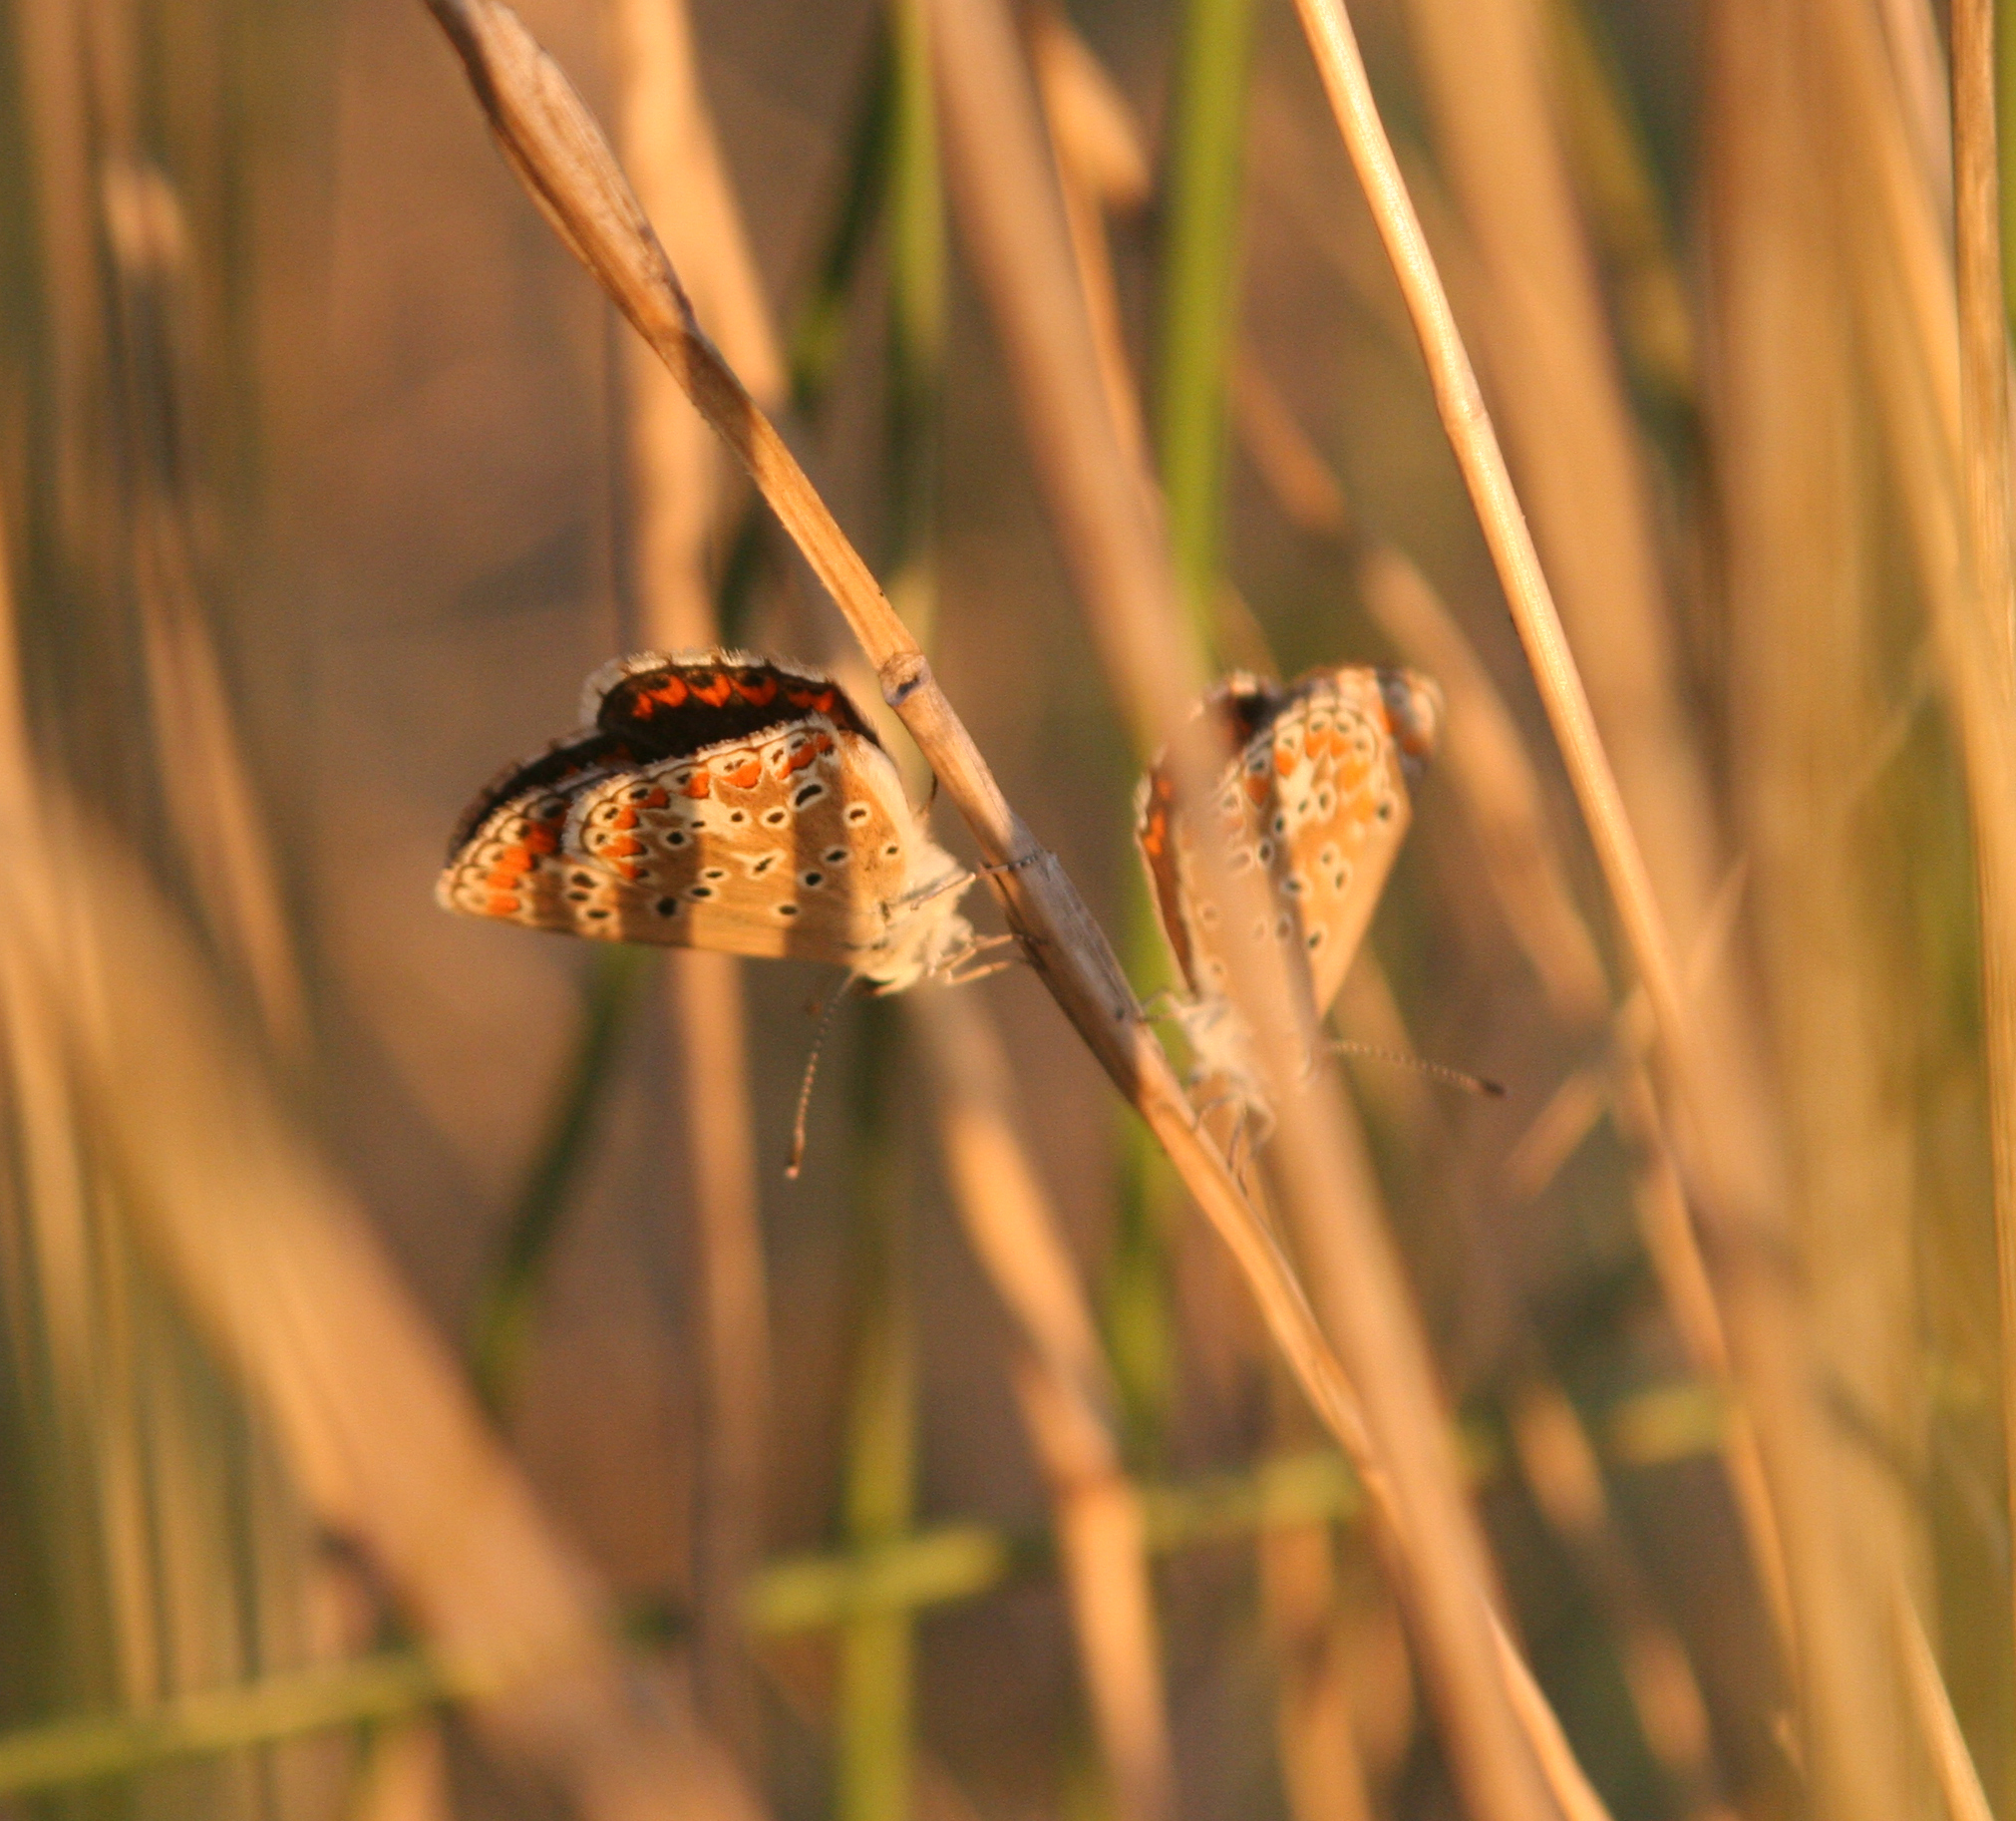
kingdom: Animalia
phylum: Arthropoda
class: Insecta
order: Lepidoptera
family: Lycaenidae
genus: Aricia
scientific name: Aricia agestis
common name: Brown argus
